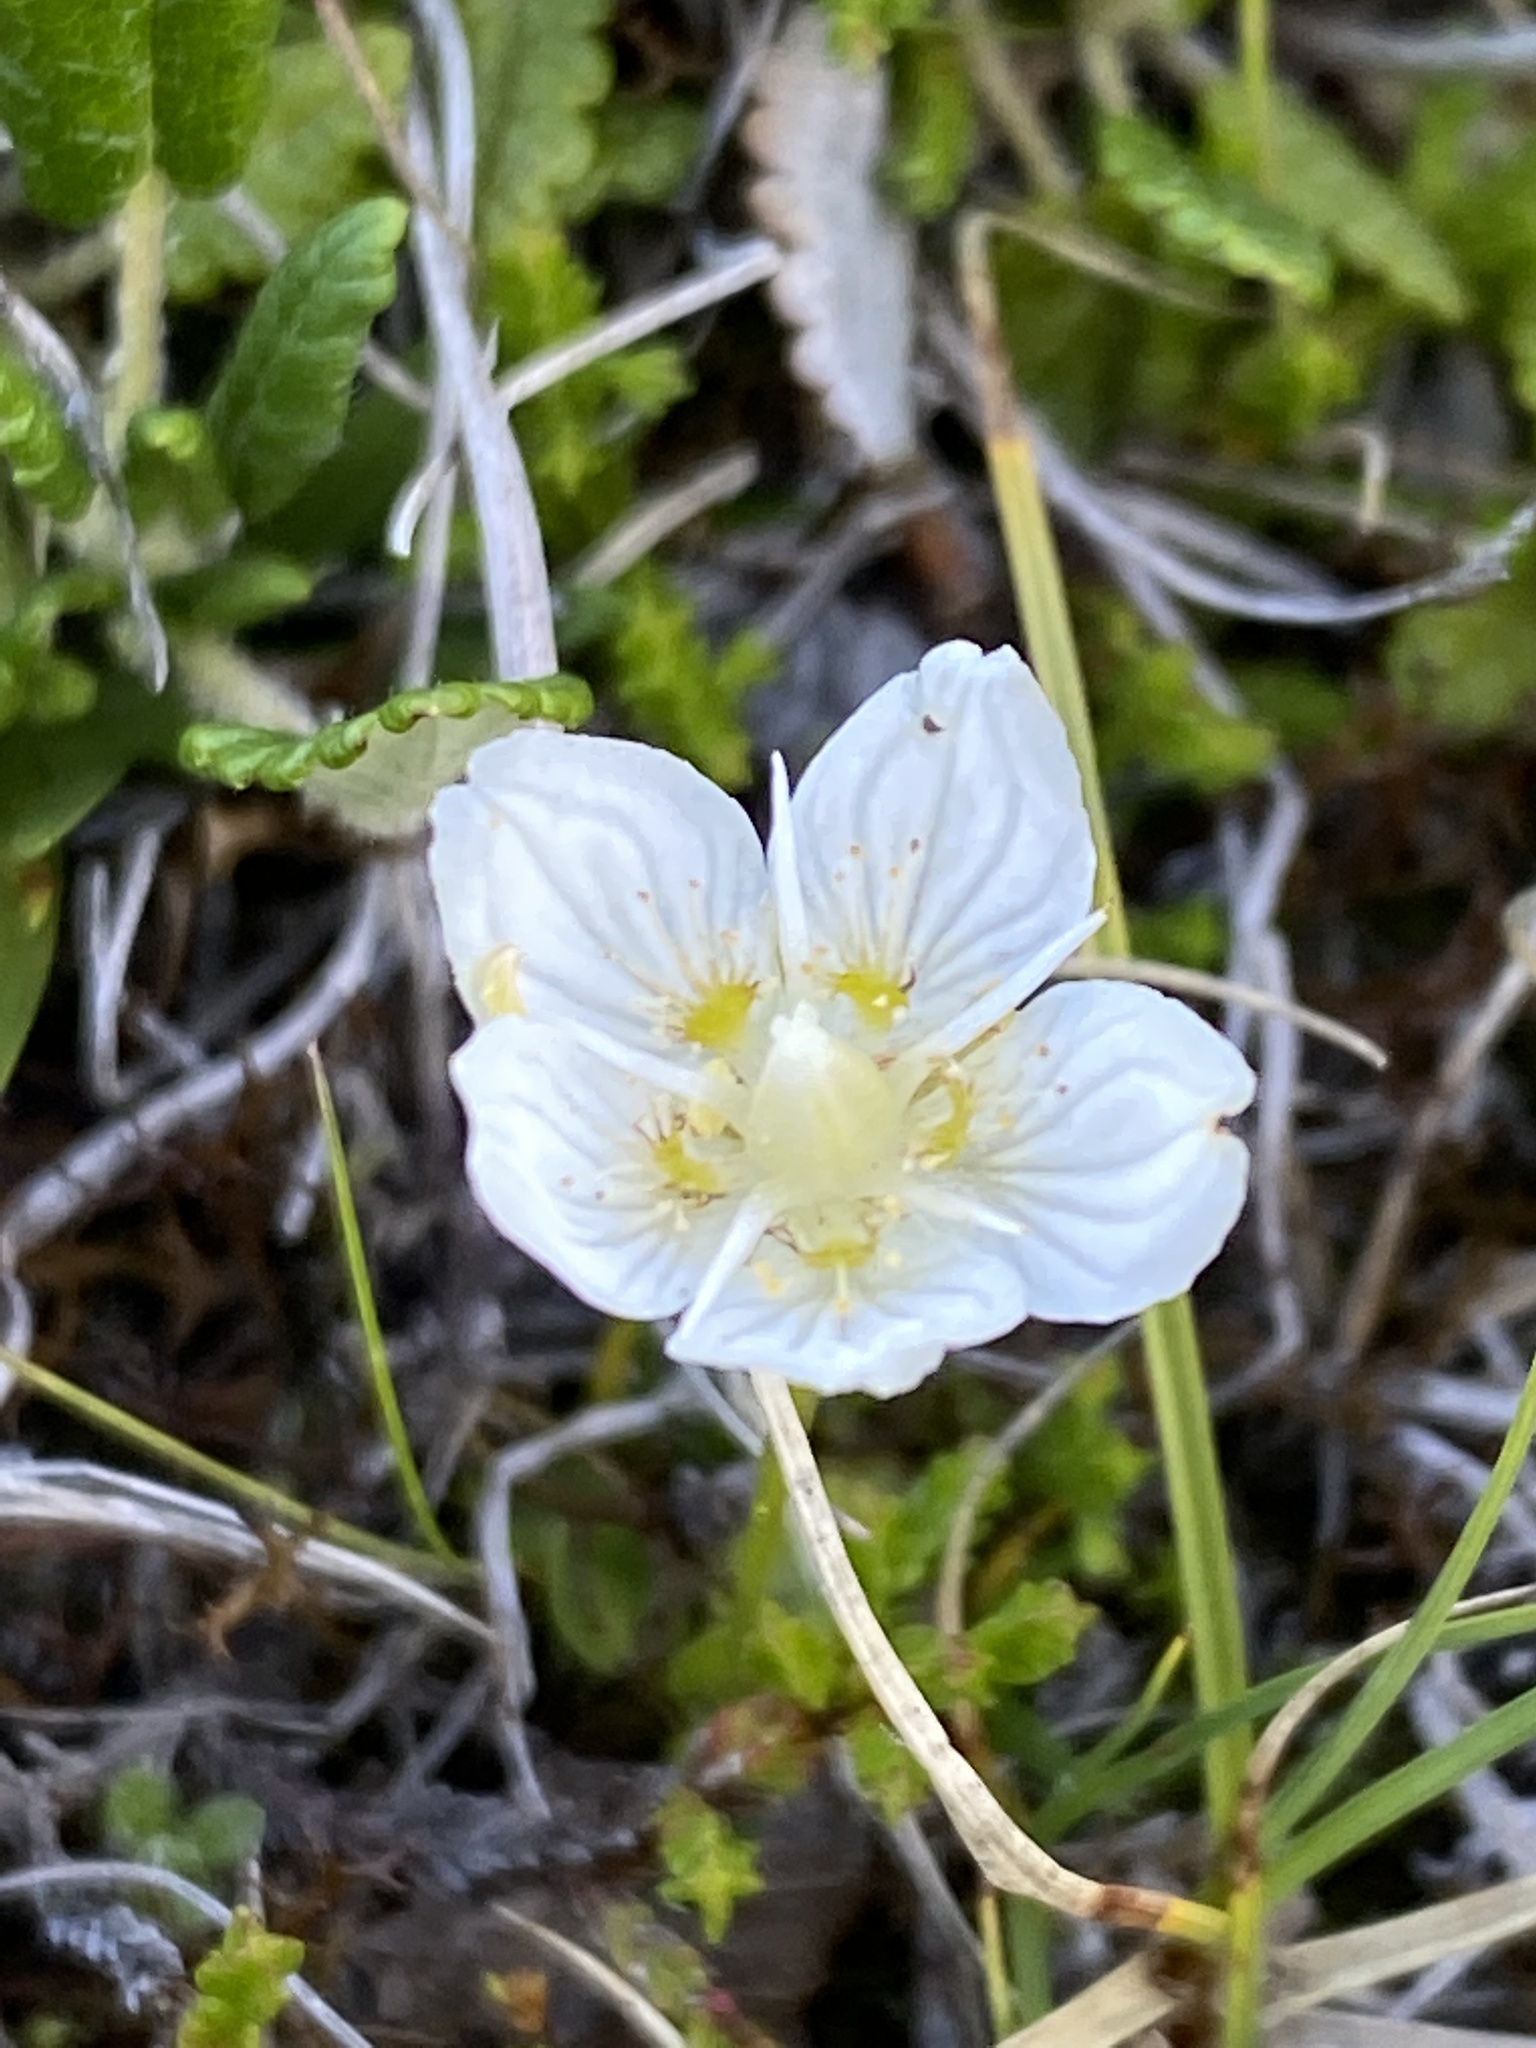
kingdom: Plantae
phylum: Tracheophyta
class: Magnoliopsida
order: Celastrales
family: Parnassiaceae
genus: Parnassia
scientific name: Parnassia palustris
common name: Grass-of-parnassus
